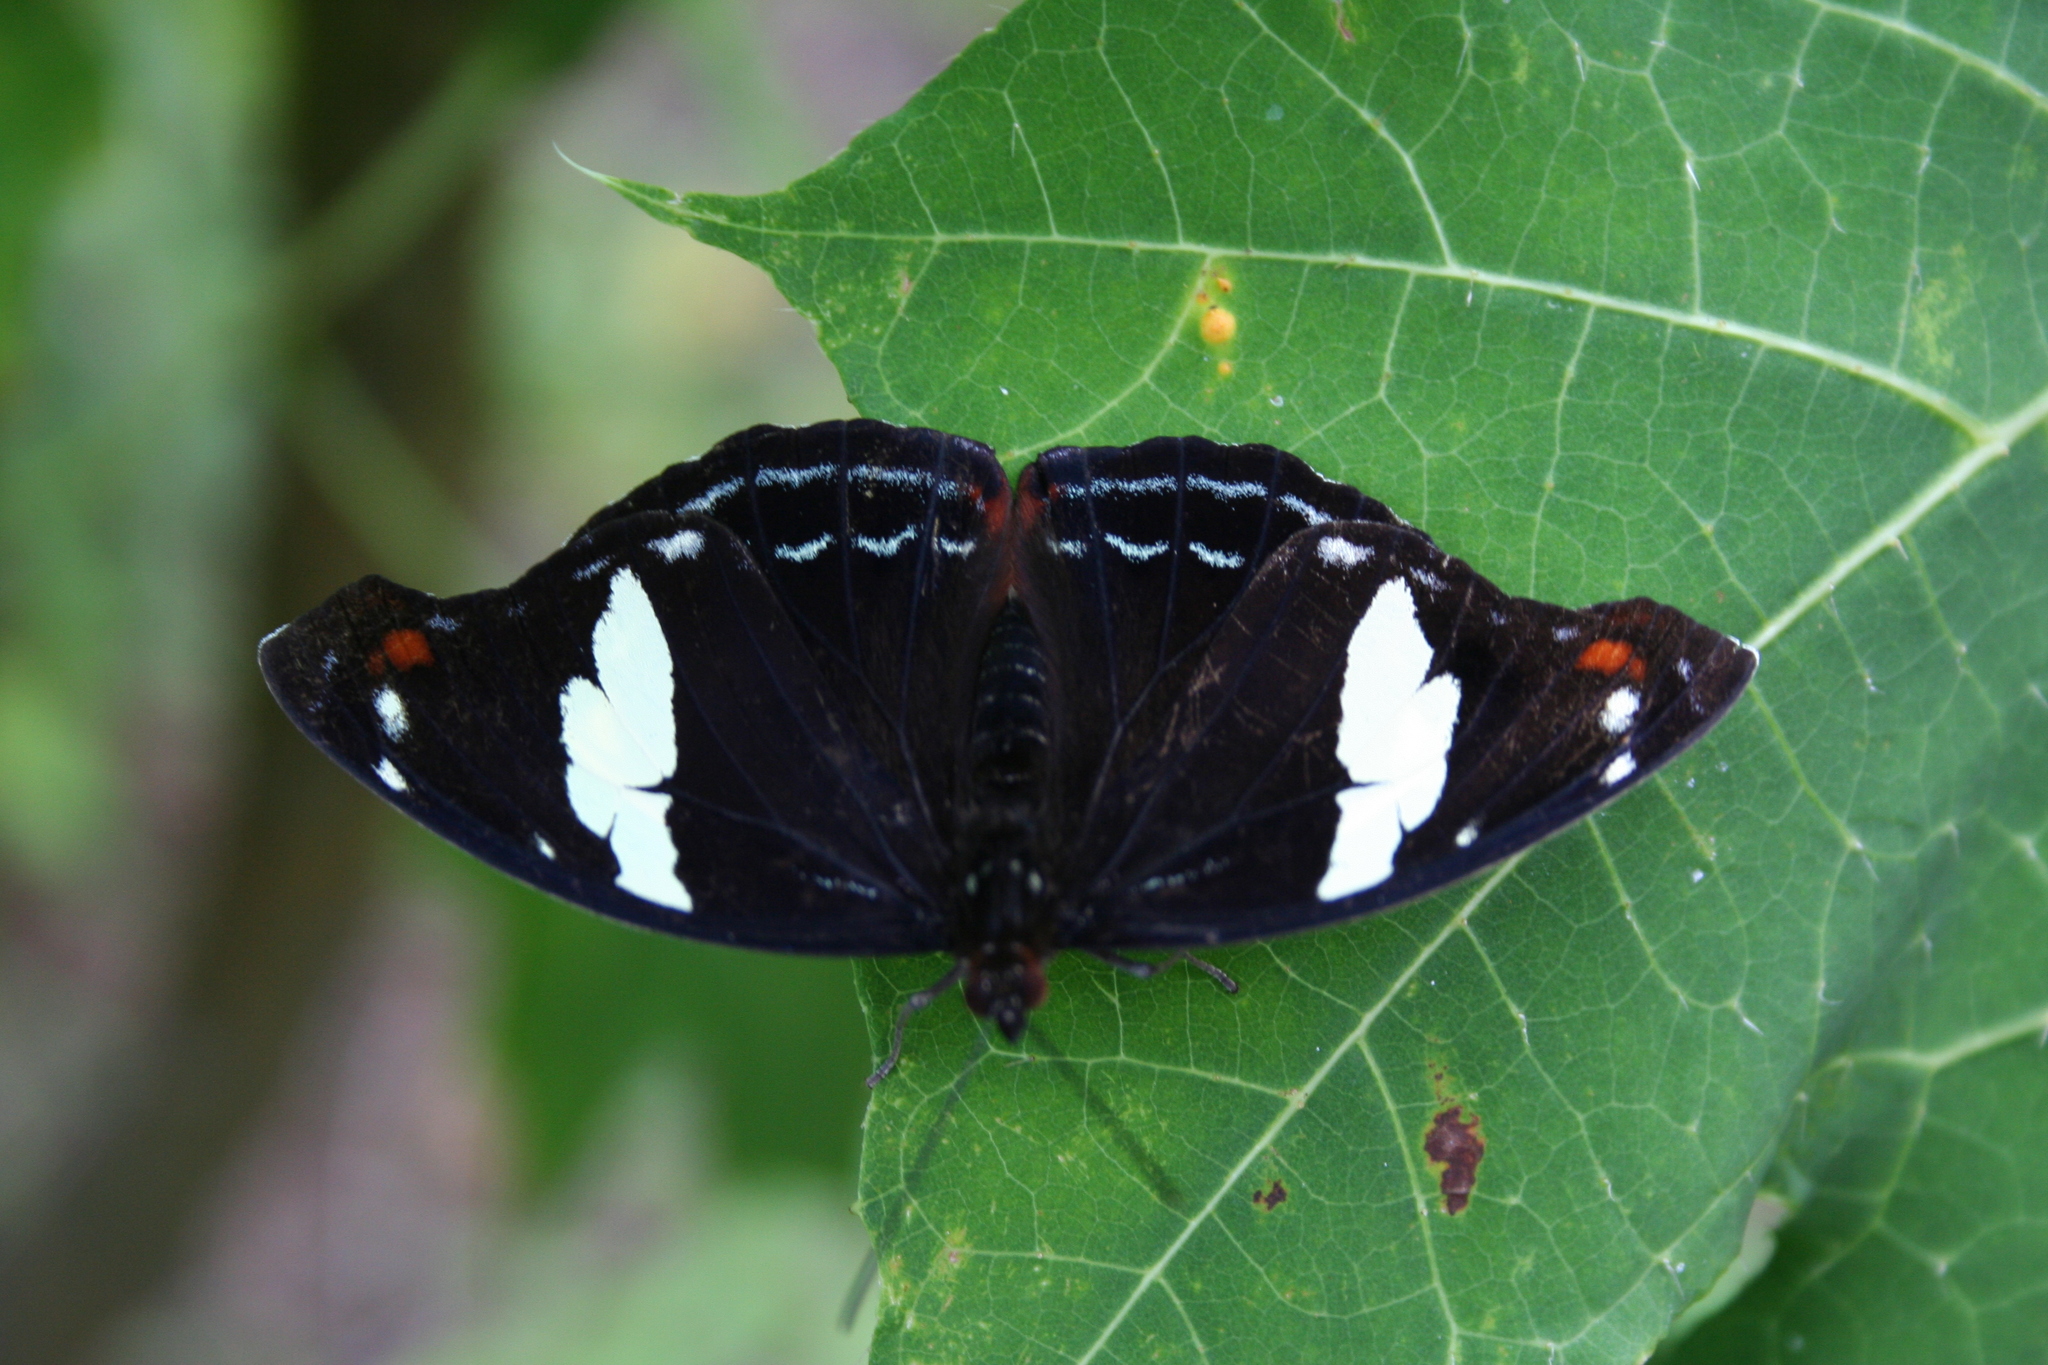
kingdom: Animalia
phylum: Arthropoda
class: Insecta
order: Lepidoptera
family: Nymphalidae
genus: Catonephele
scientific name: Catonephele numilia
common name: Blue-frosted banner
